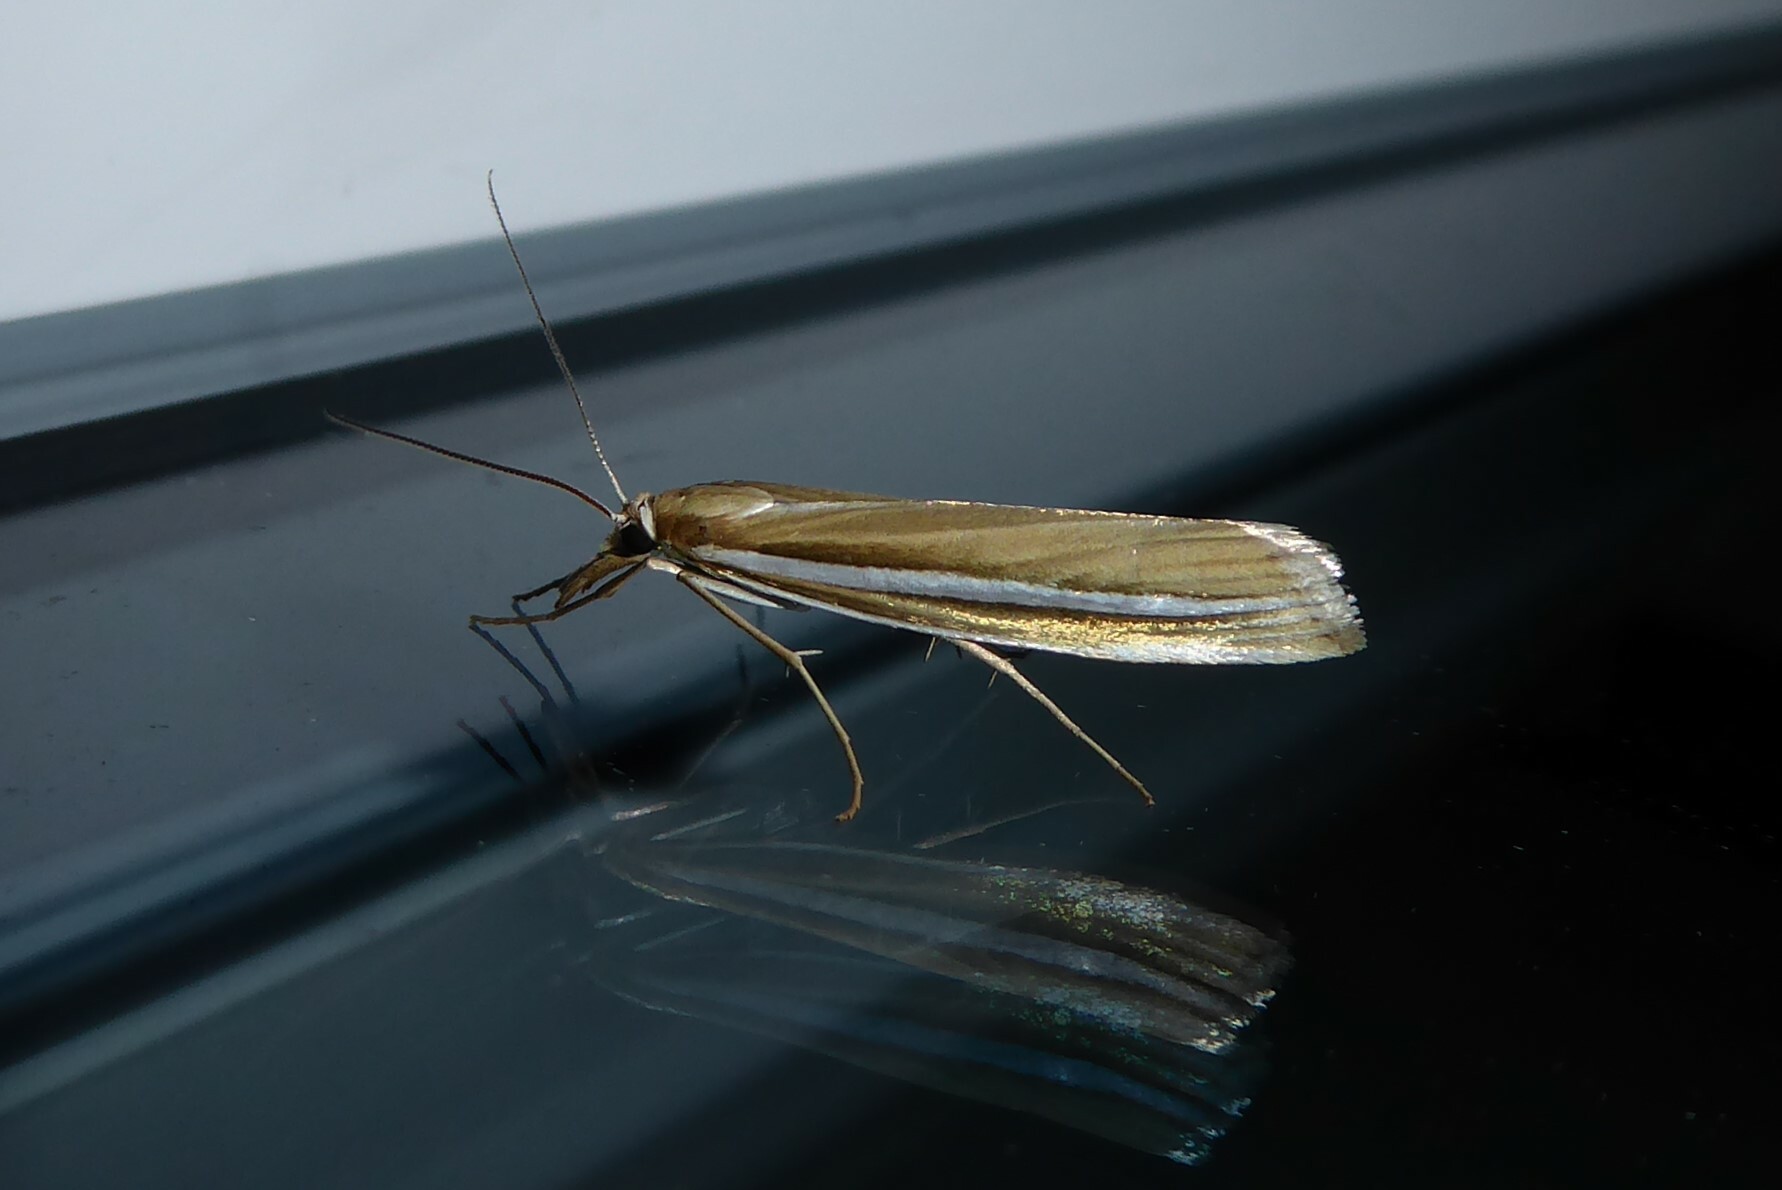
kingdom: Animalia
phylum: Arthropoda
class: Insecta
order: Lepidoptera
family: Crambidae
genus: Orocrambus
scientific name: Orocrambus ordishi
